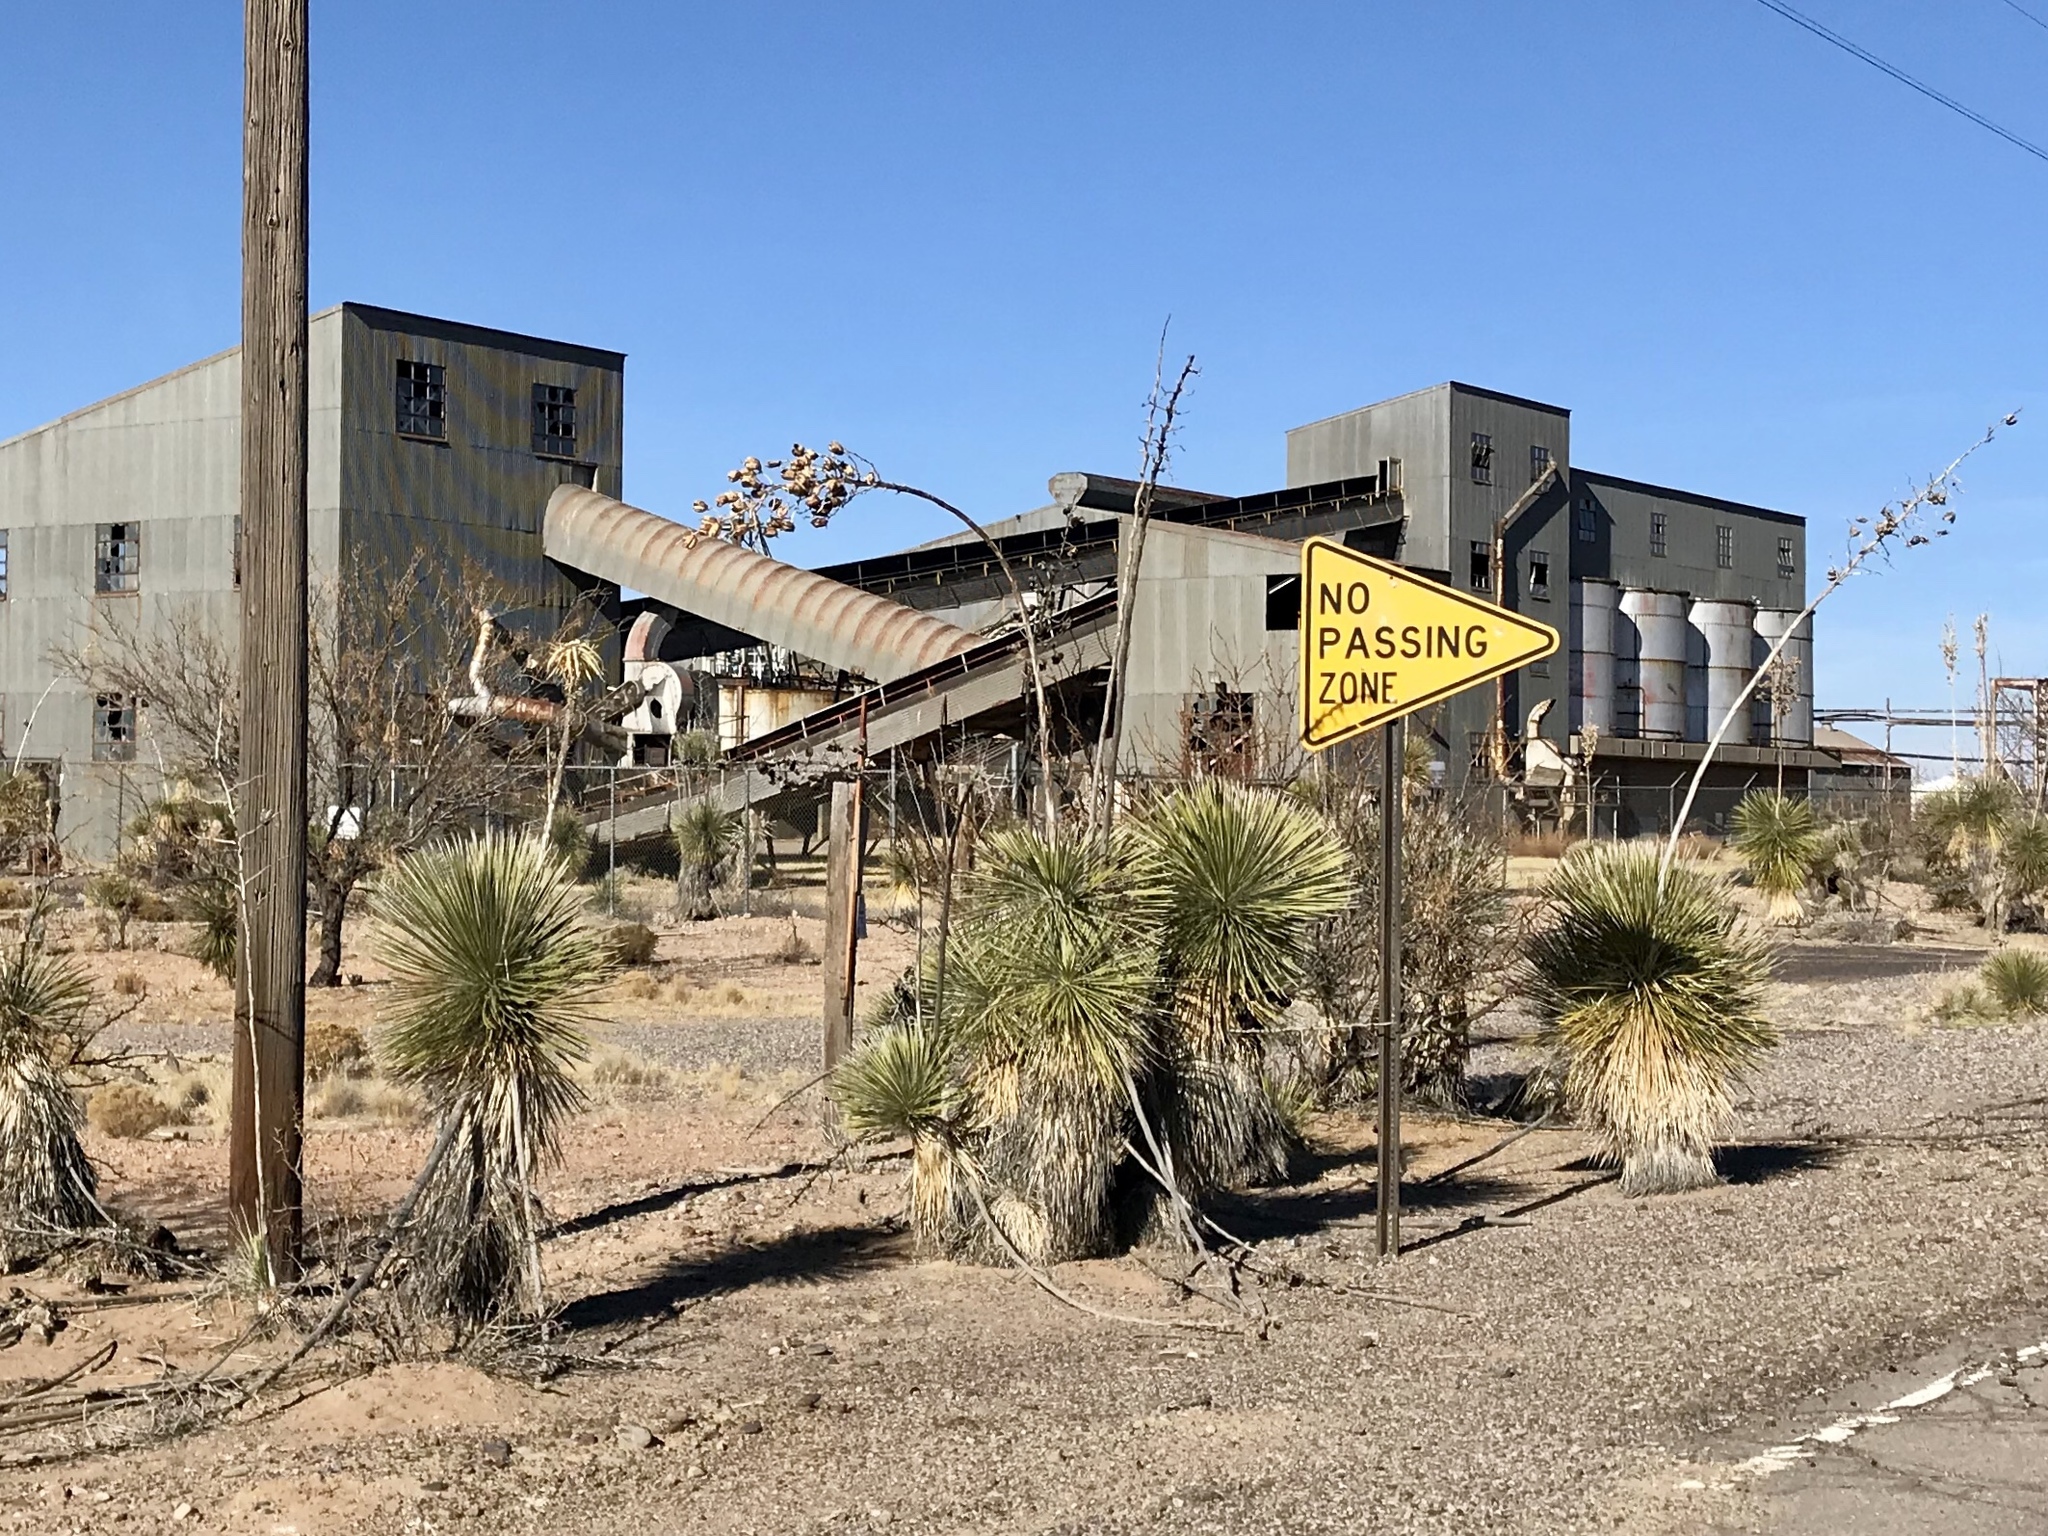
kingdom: Plantae
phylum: Tracheophyta
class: Liliopsida
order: Asparagales
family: Asparagaceae
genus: Yucca
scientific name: Yucca elata
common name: Palmella
